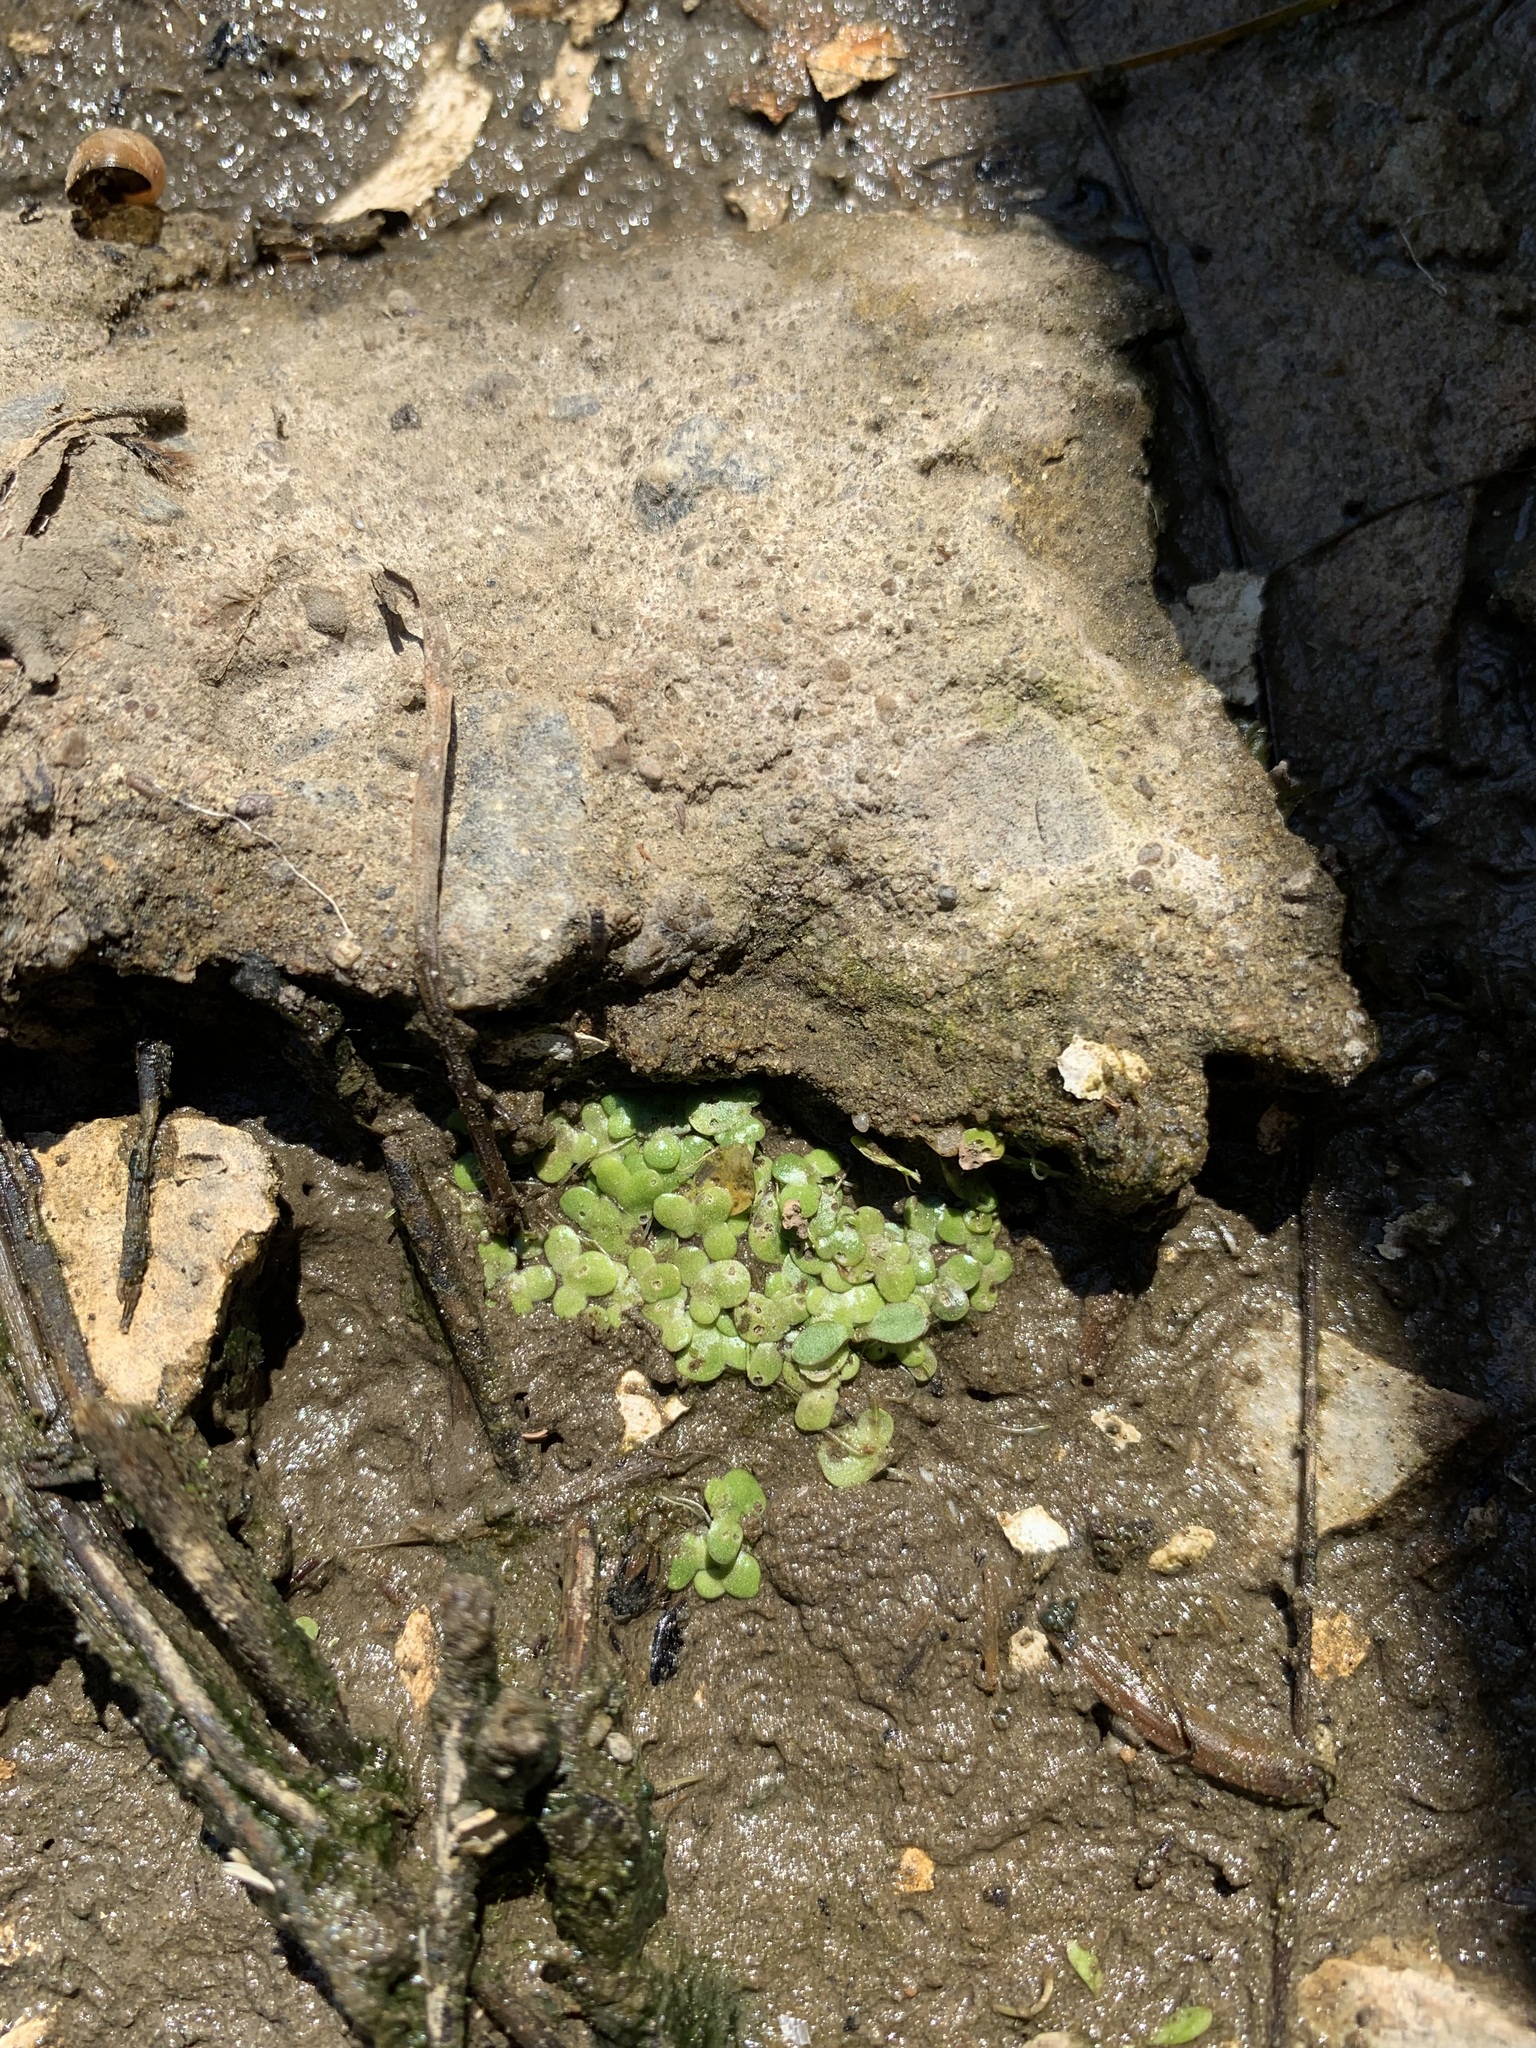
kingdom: Plantae
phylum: Tracheophyta
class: Liliopsida
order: Alismatales
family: Araceae
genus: Lemna
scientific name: Lemna turionifera
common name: Perennial duckweed
